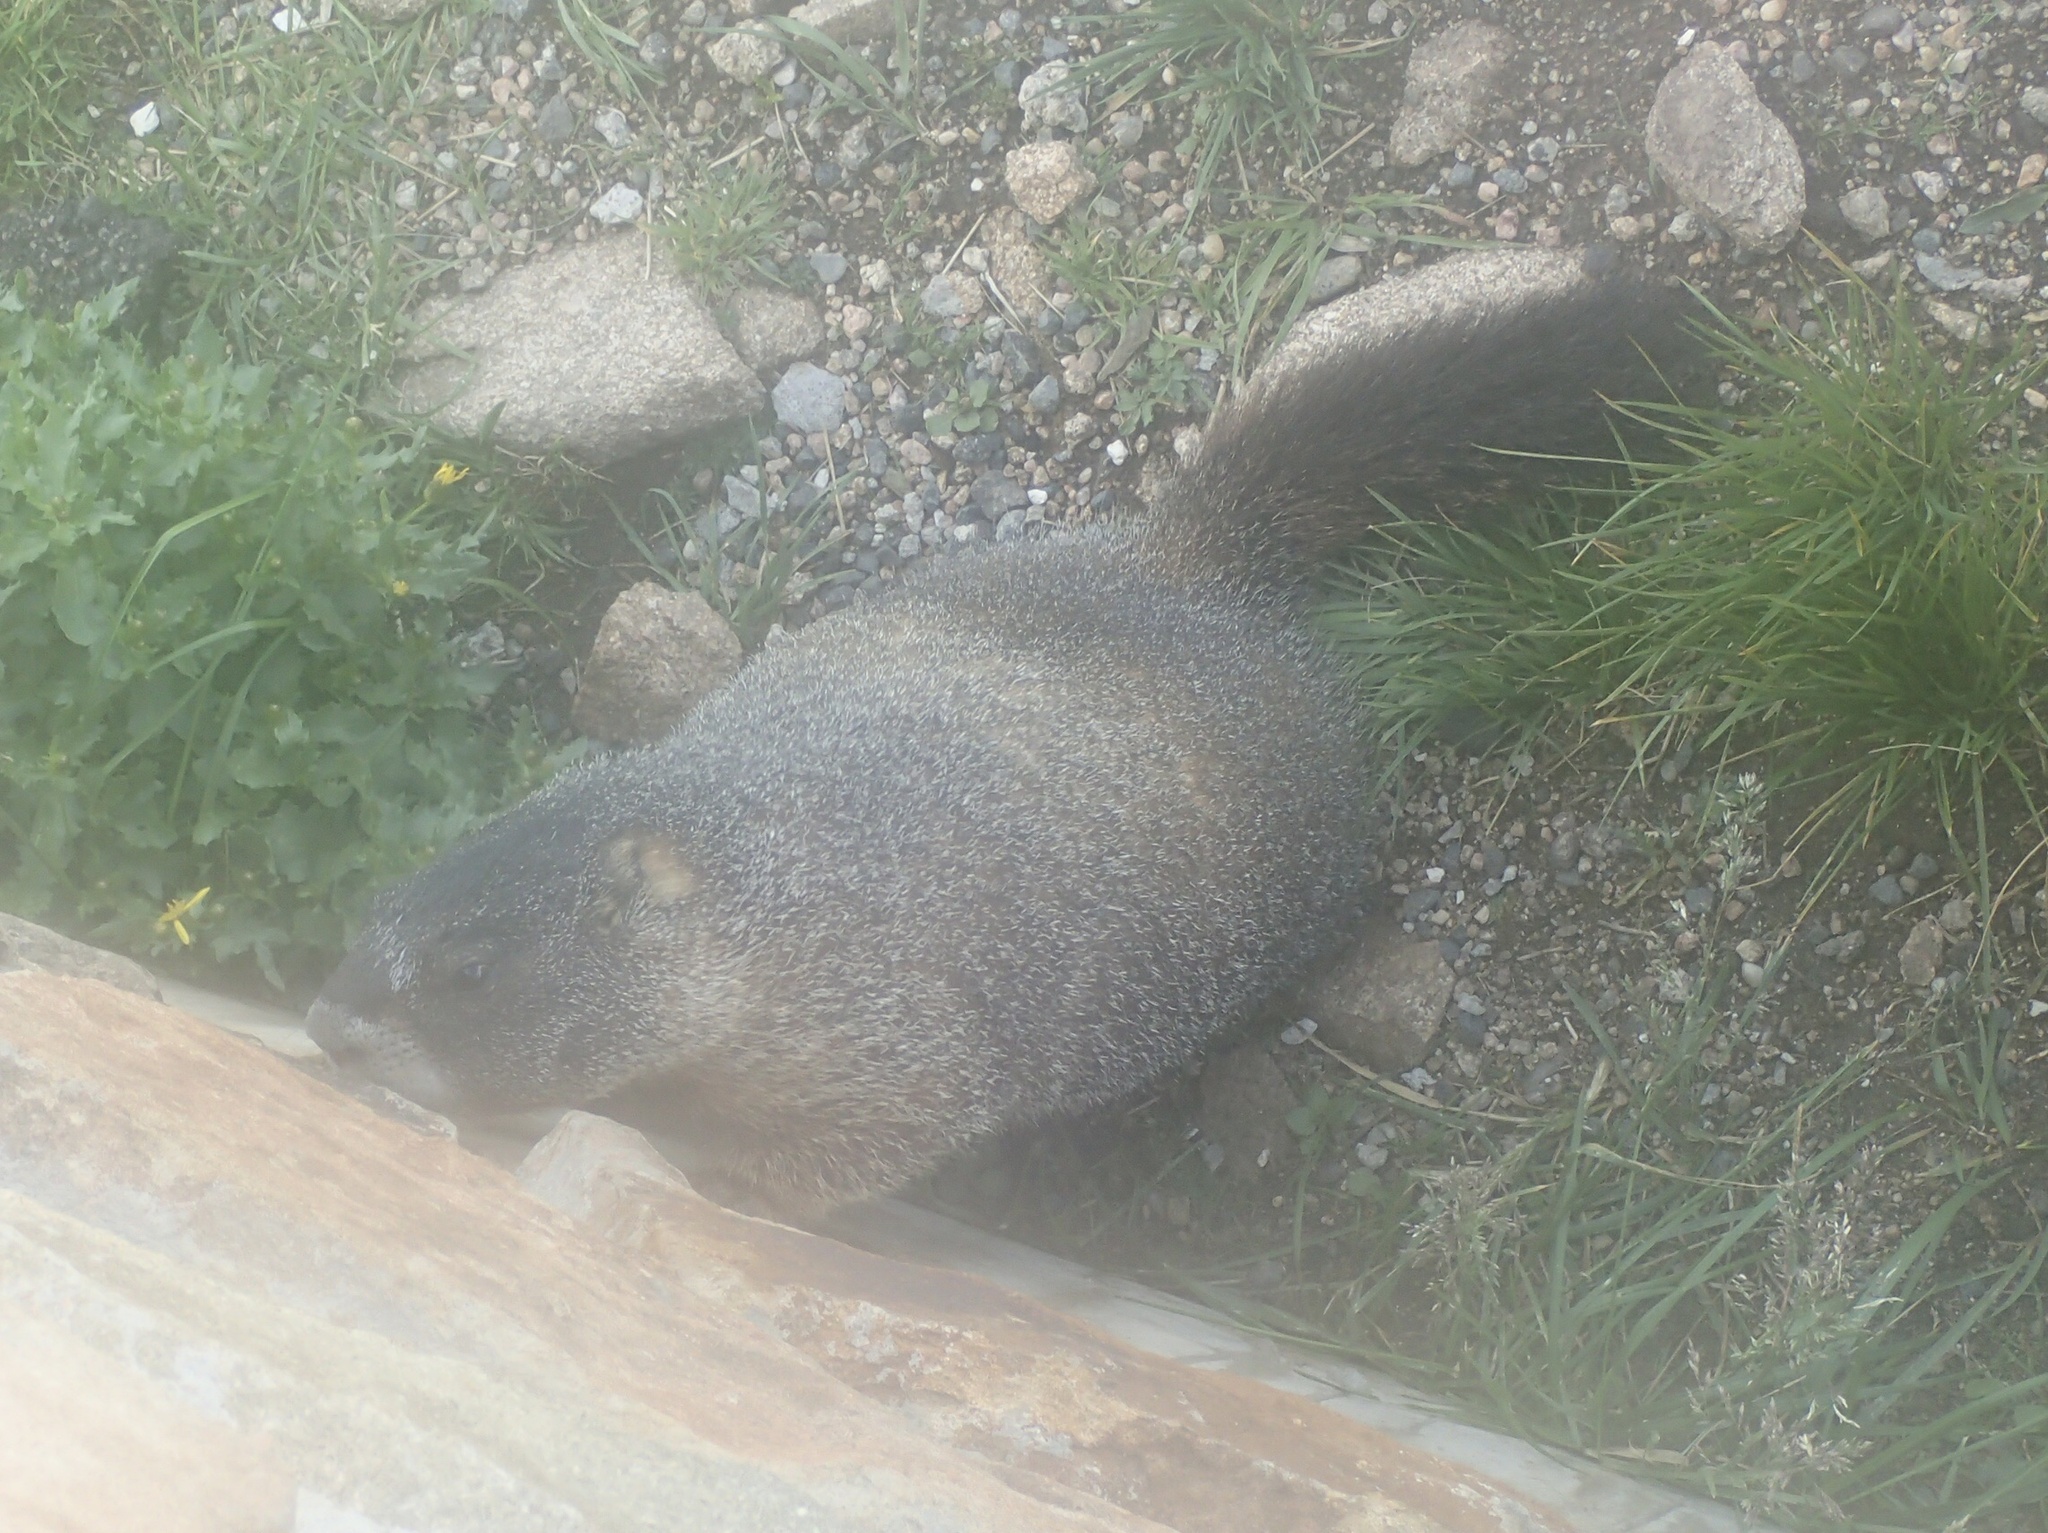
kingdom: Animalia
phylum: Chordata
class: Mammalia
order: Rodentia
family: Sciuridae
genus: Marmota
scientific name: Marmota flaviventris
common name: Yellow-bellied marmot
